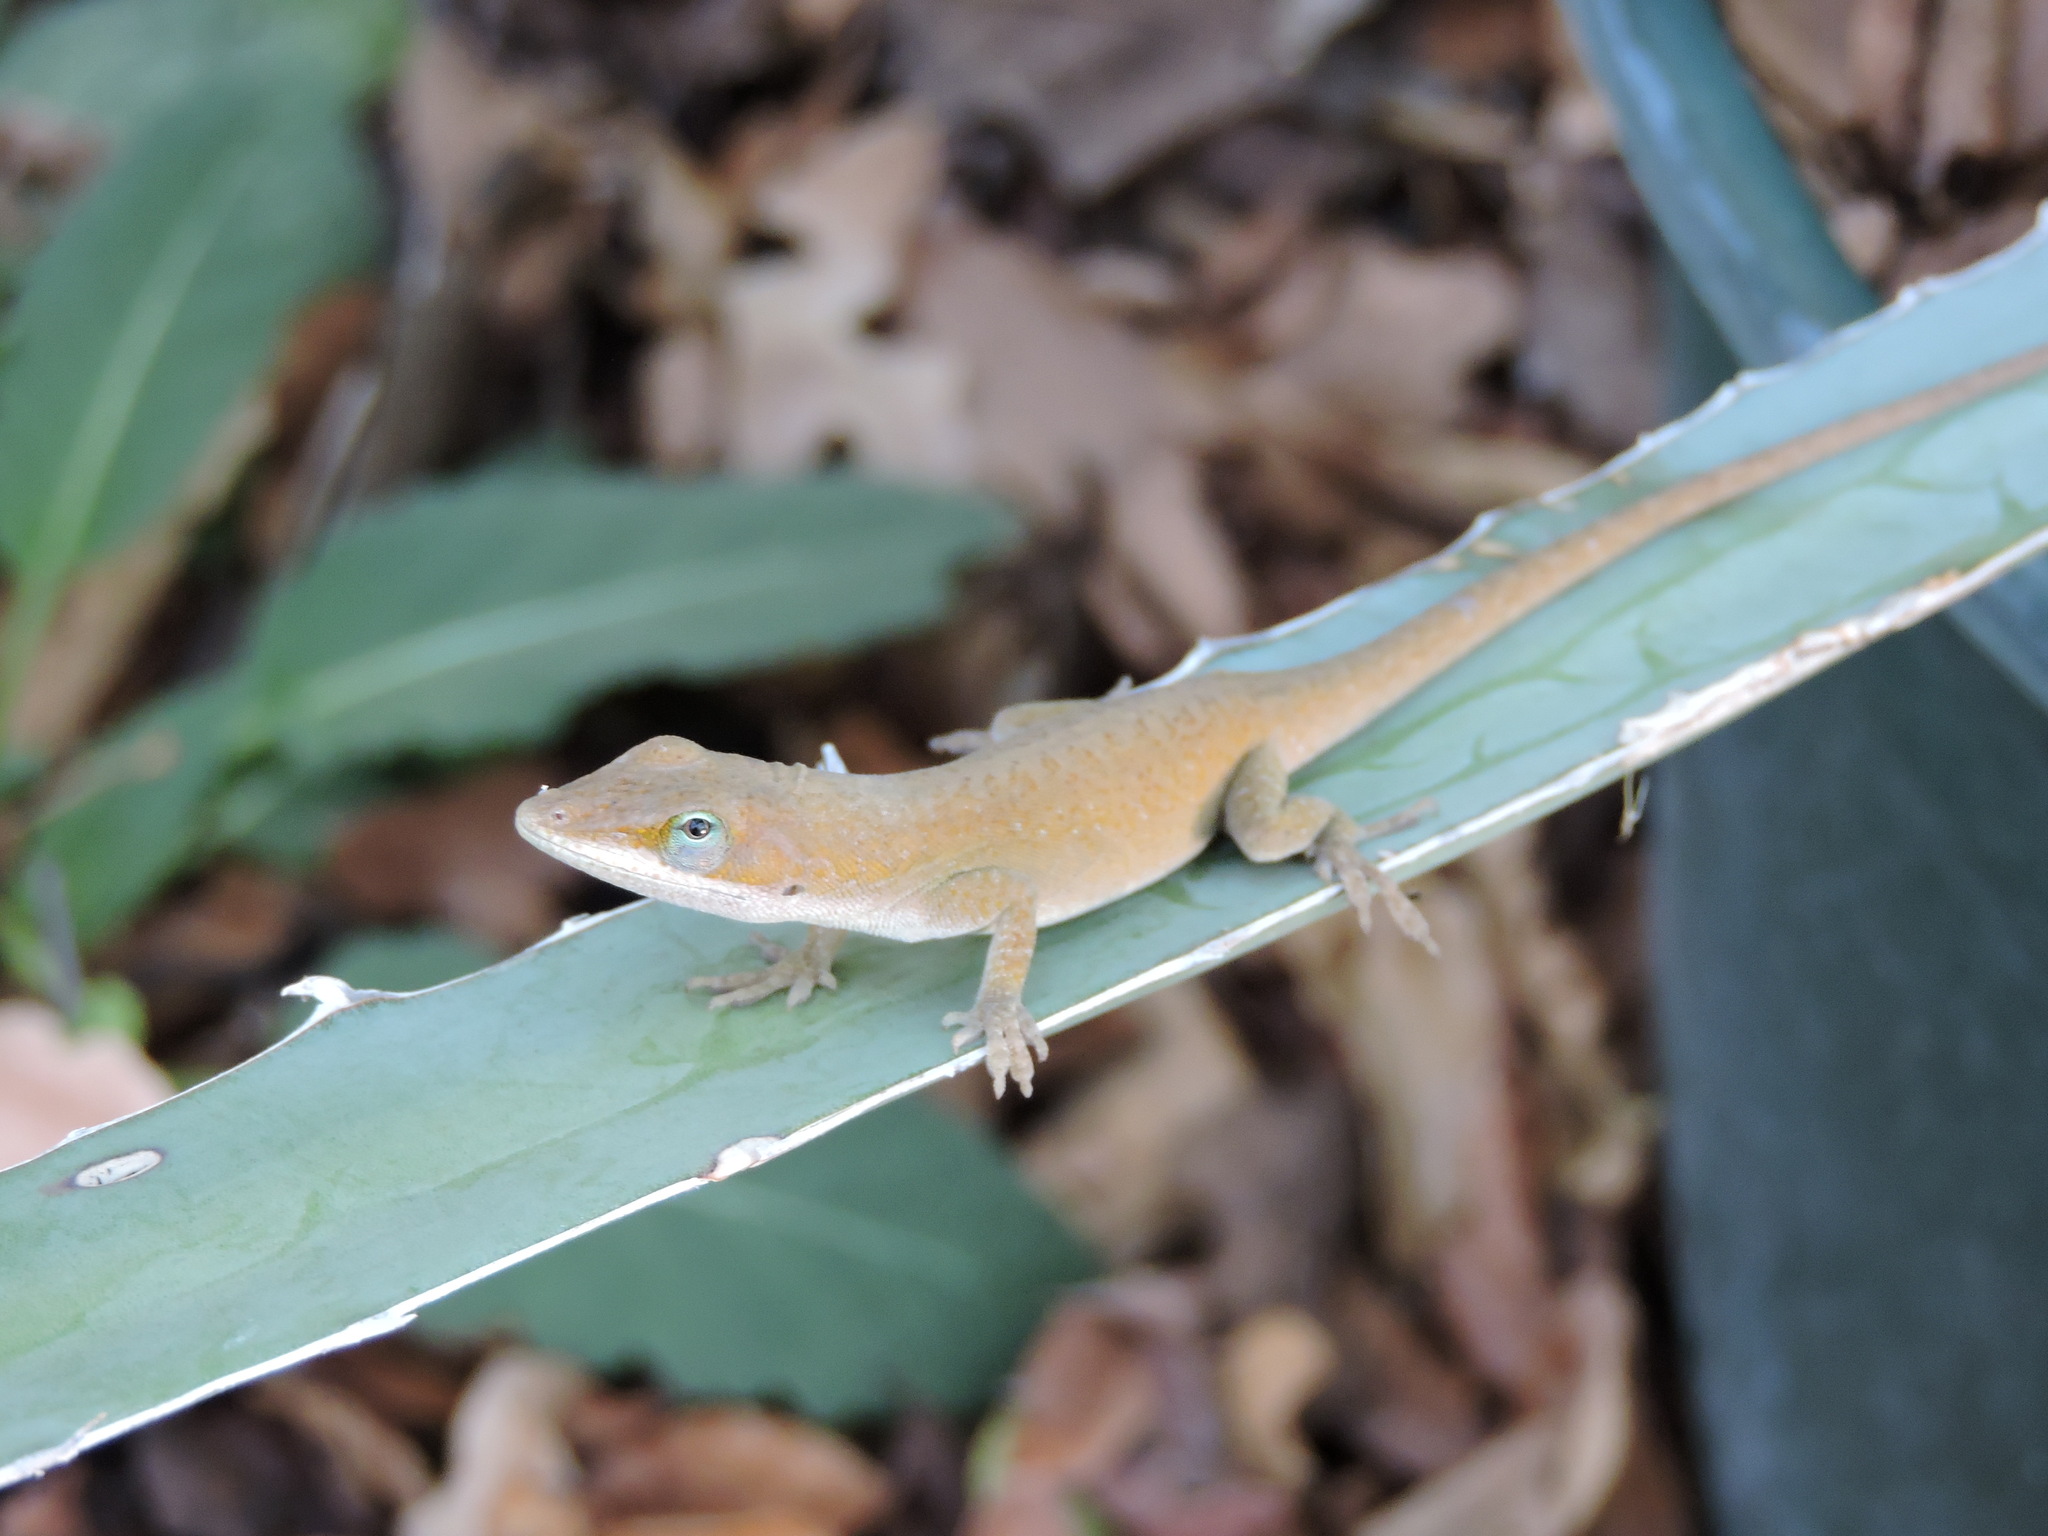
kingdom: Animalia
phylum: Chordata
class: Squamata
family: Dactyloidae
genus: Anolis
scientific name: Anolis carolinensis
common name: Green anole
